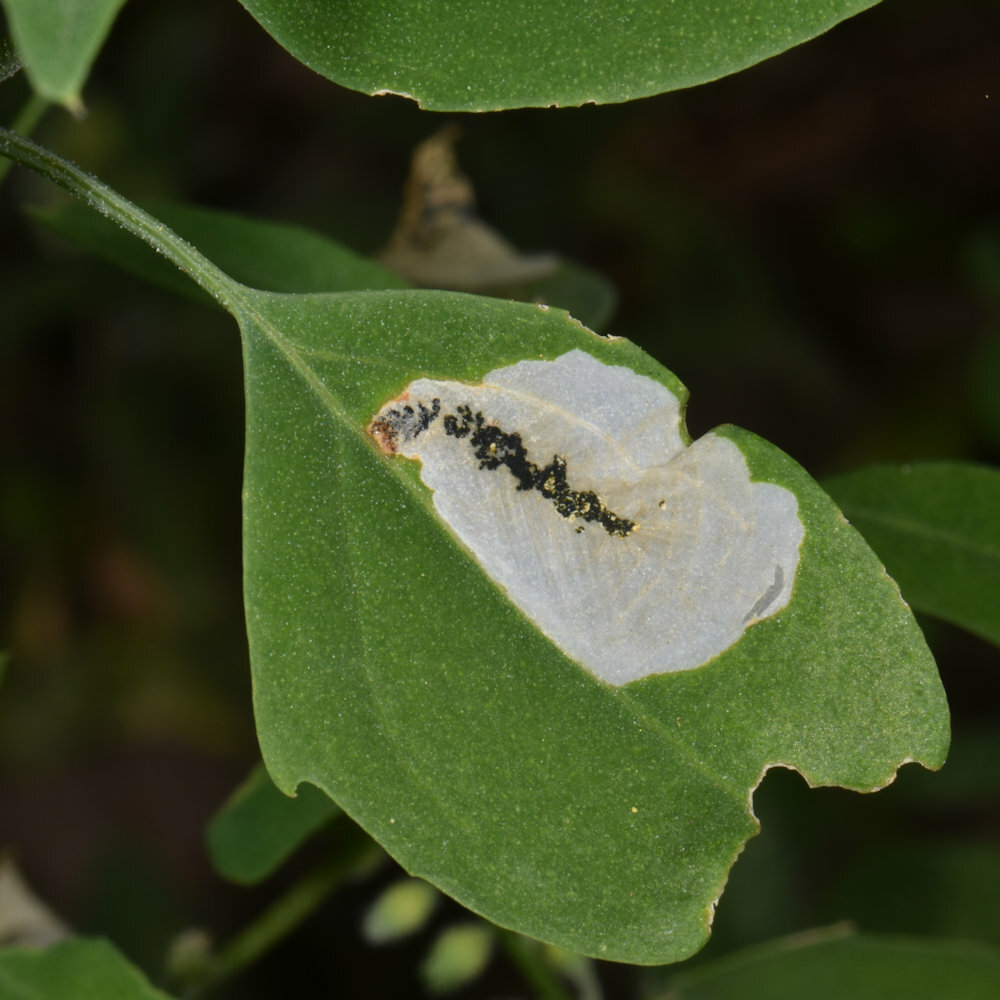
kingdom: Animalia
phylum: Arthropoda
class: Insecta
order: Lepidoptera
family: Gelechiidae
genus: Chrysoesthia
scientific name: Chrysoesthia sexguttella
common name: Moth
